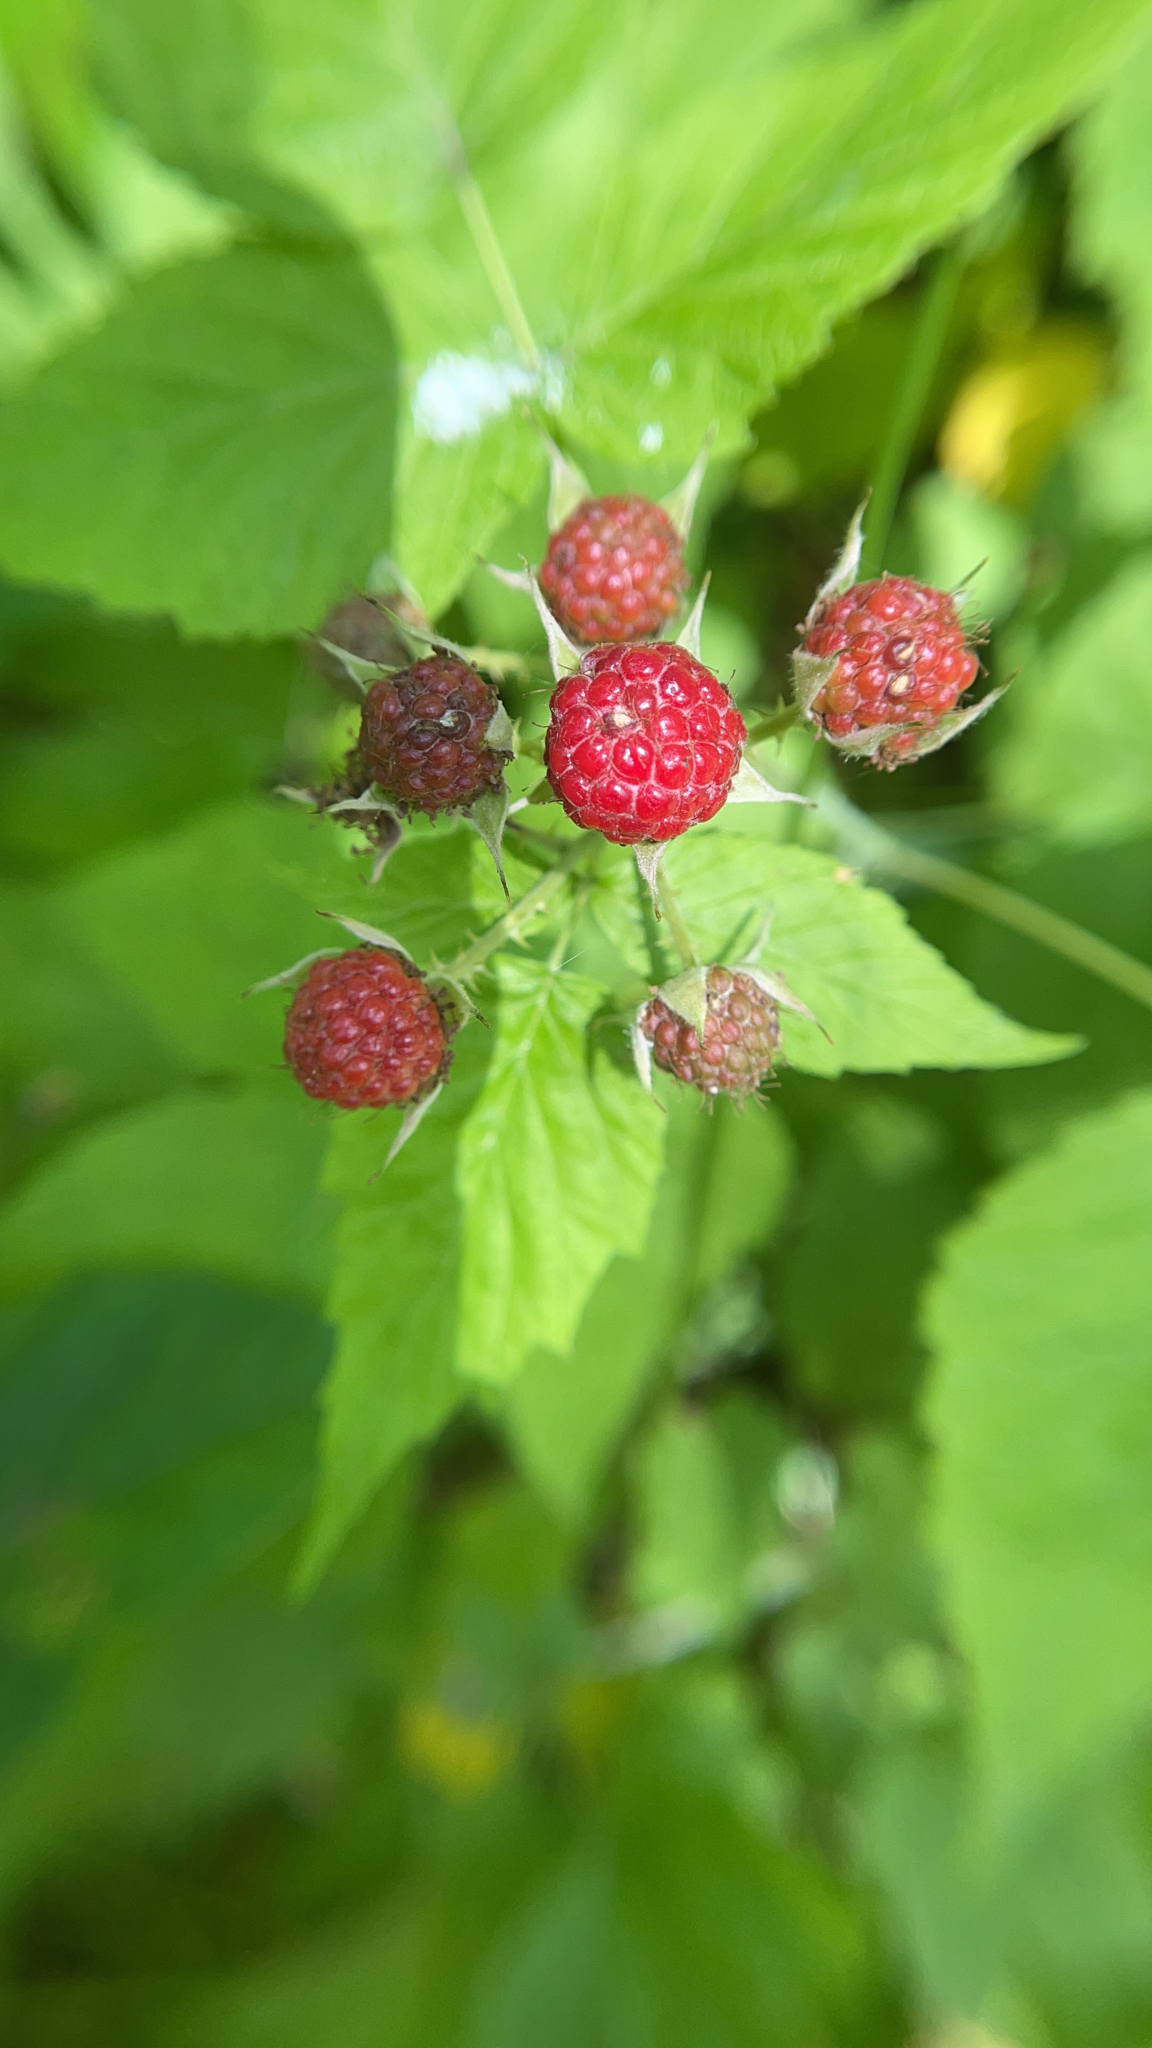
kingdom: Plantae
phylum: Tracheophyta
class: Magnoliopsida
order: Rosales
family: Rosaceae
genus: Rubus
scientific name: Rubus occidentalis
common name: Black raspberry
